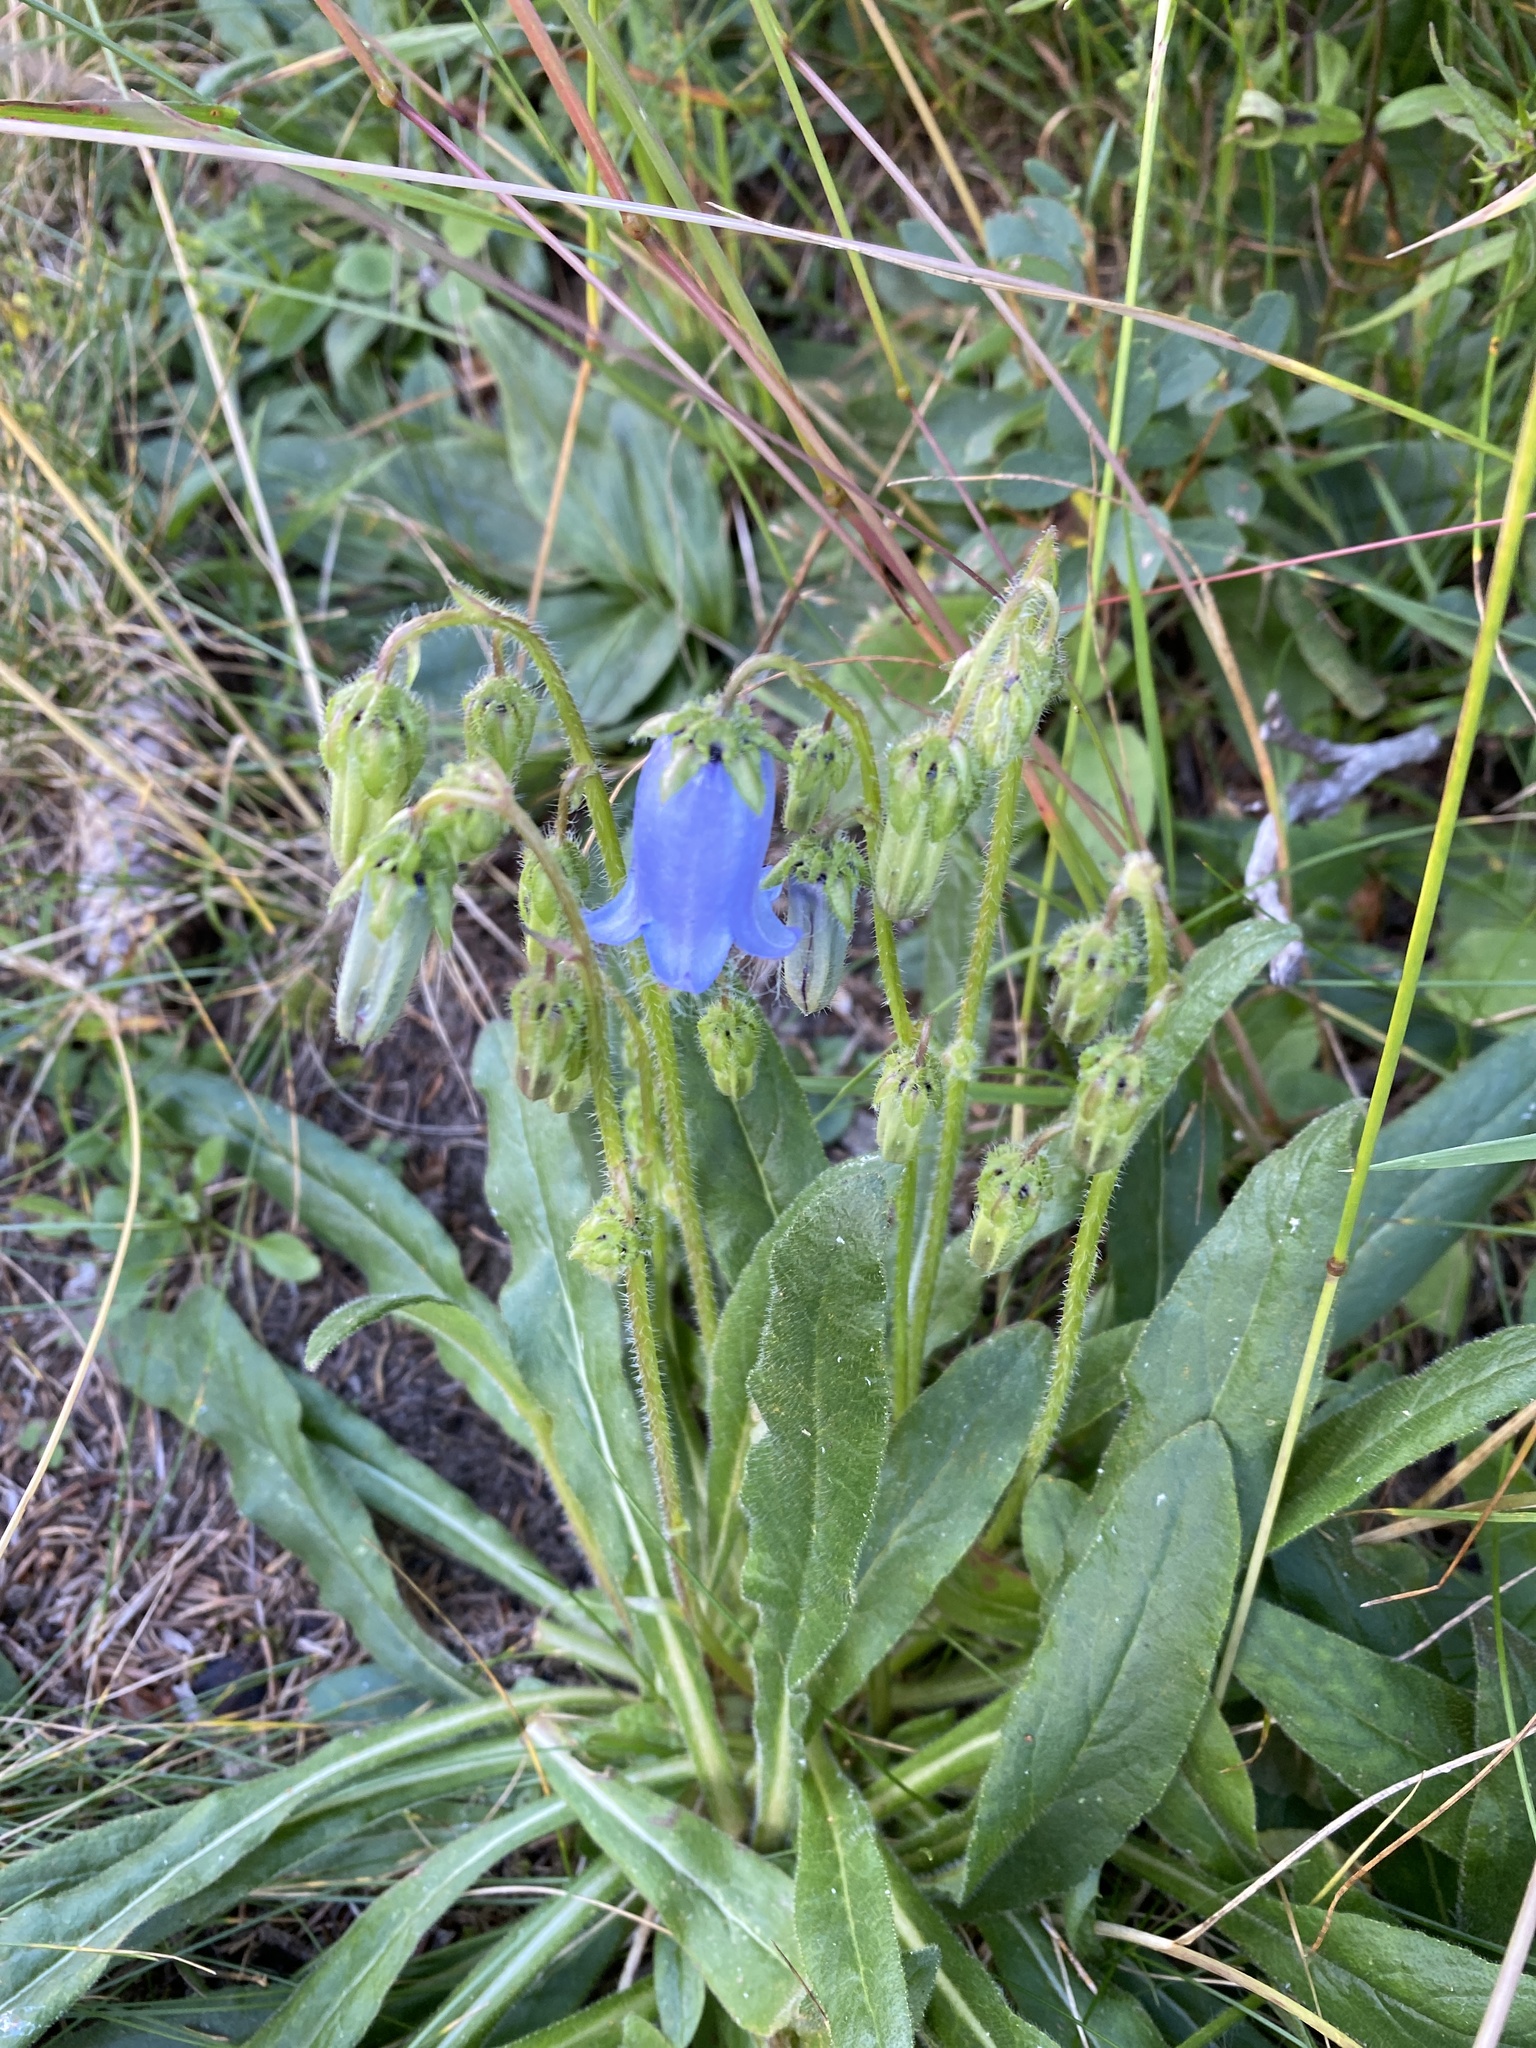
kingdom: Plantae
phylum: Tracheophyta
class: Magnoliopsida
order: Asterales
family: Campanulaceae
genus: Campanula
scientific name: Campanula barbata
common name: Bearded bellflower
